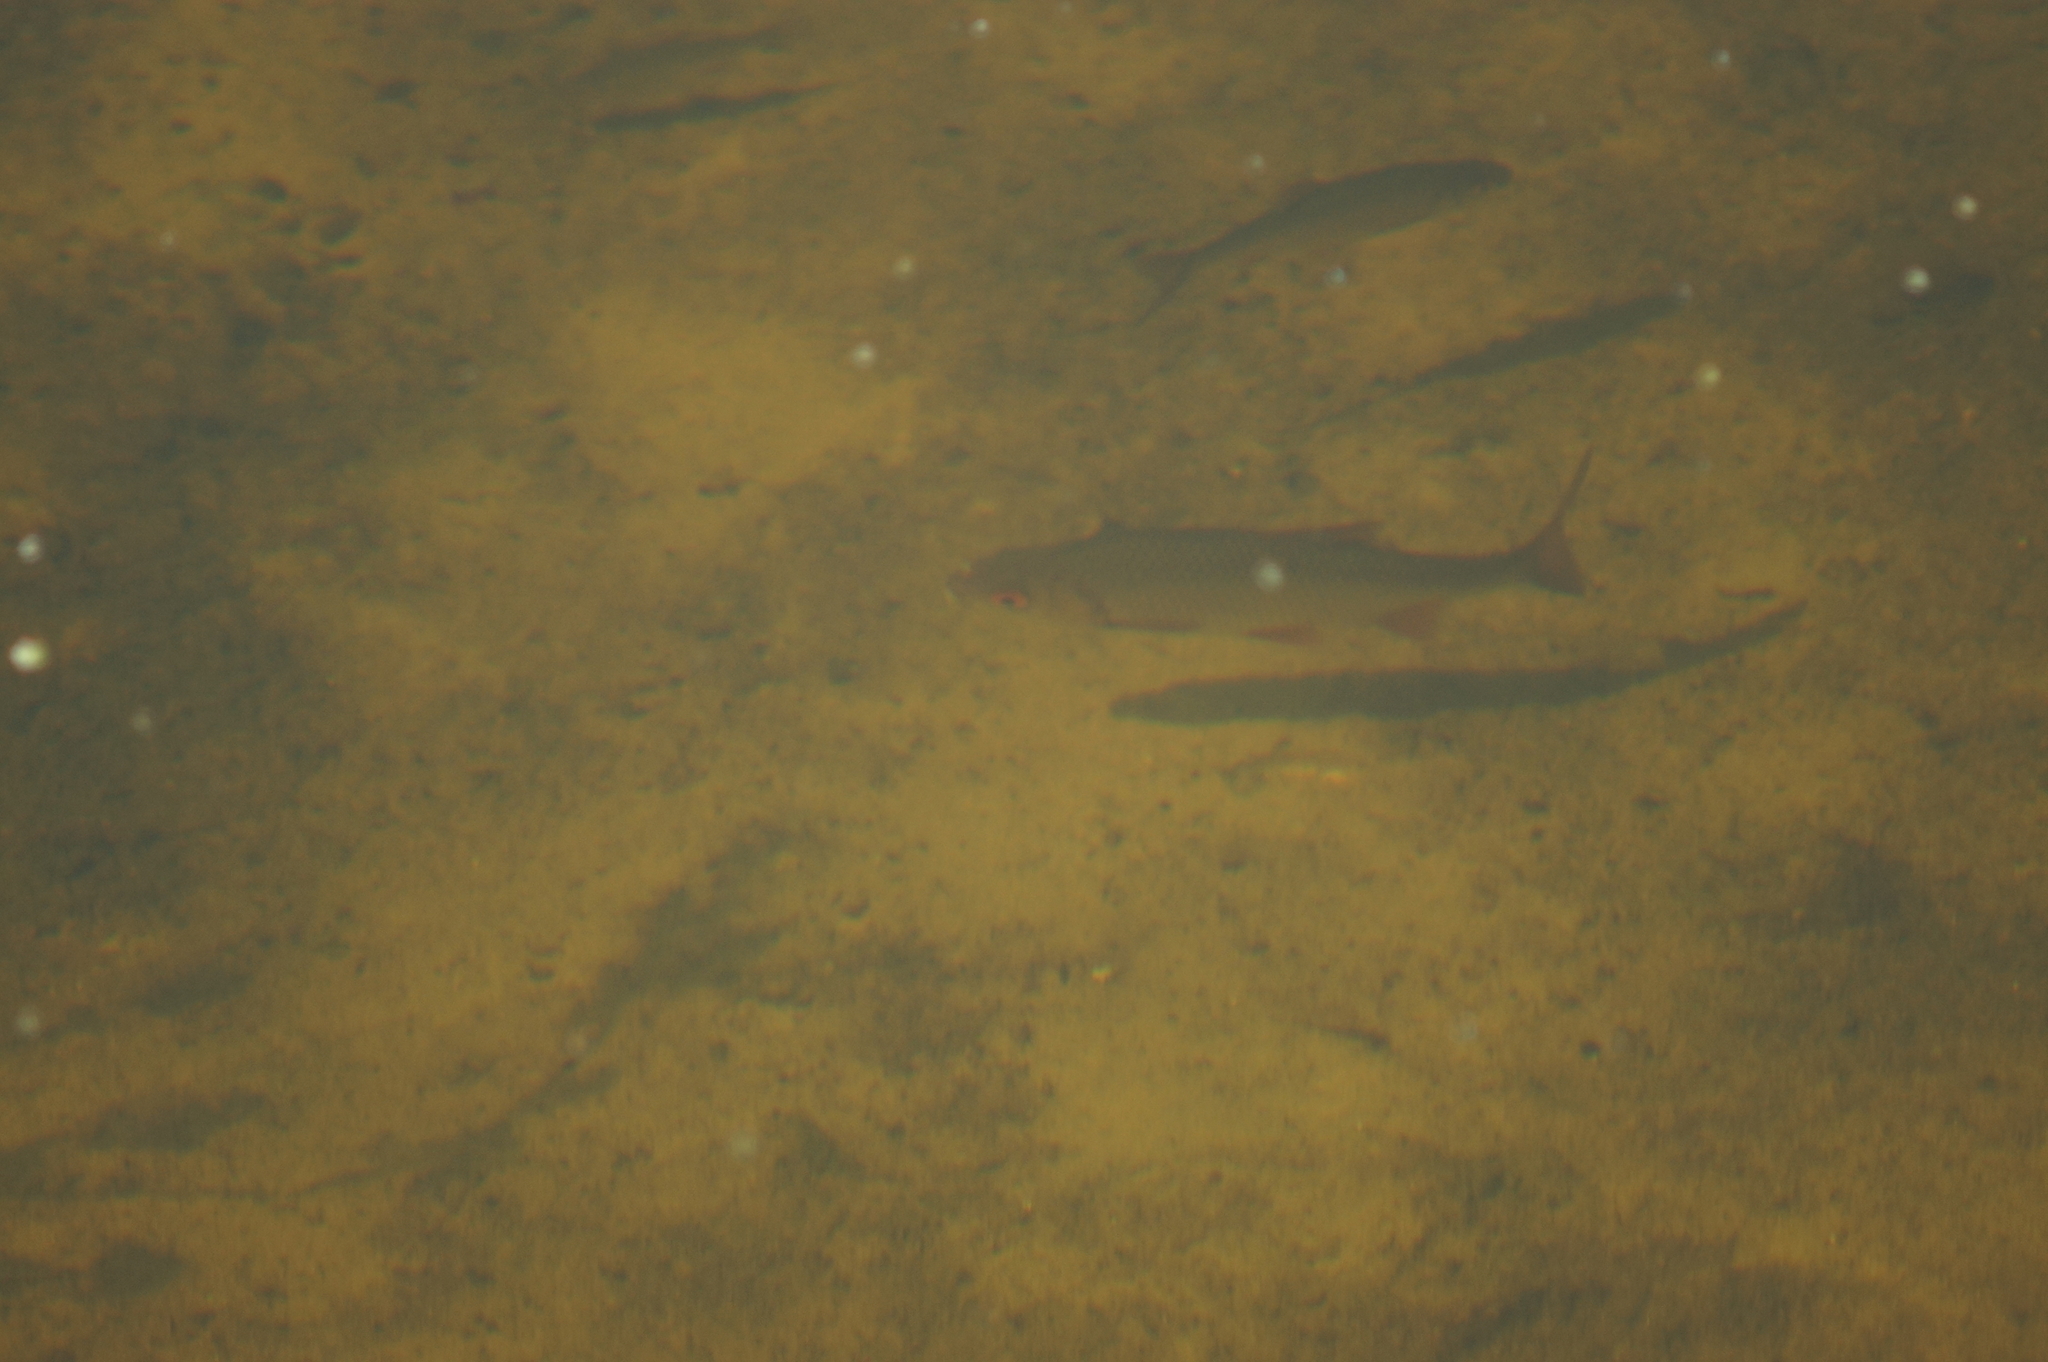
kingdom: Animalia
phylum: Chordata
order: Cypriniformes
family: Cyprinidae
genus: Rutilus
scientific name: Rutilus rutilus
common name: Roach
